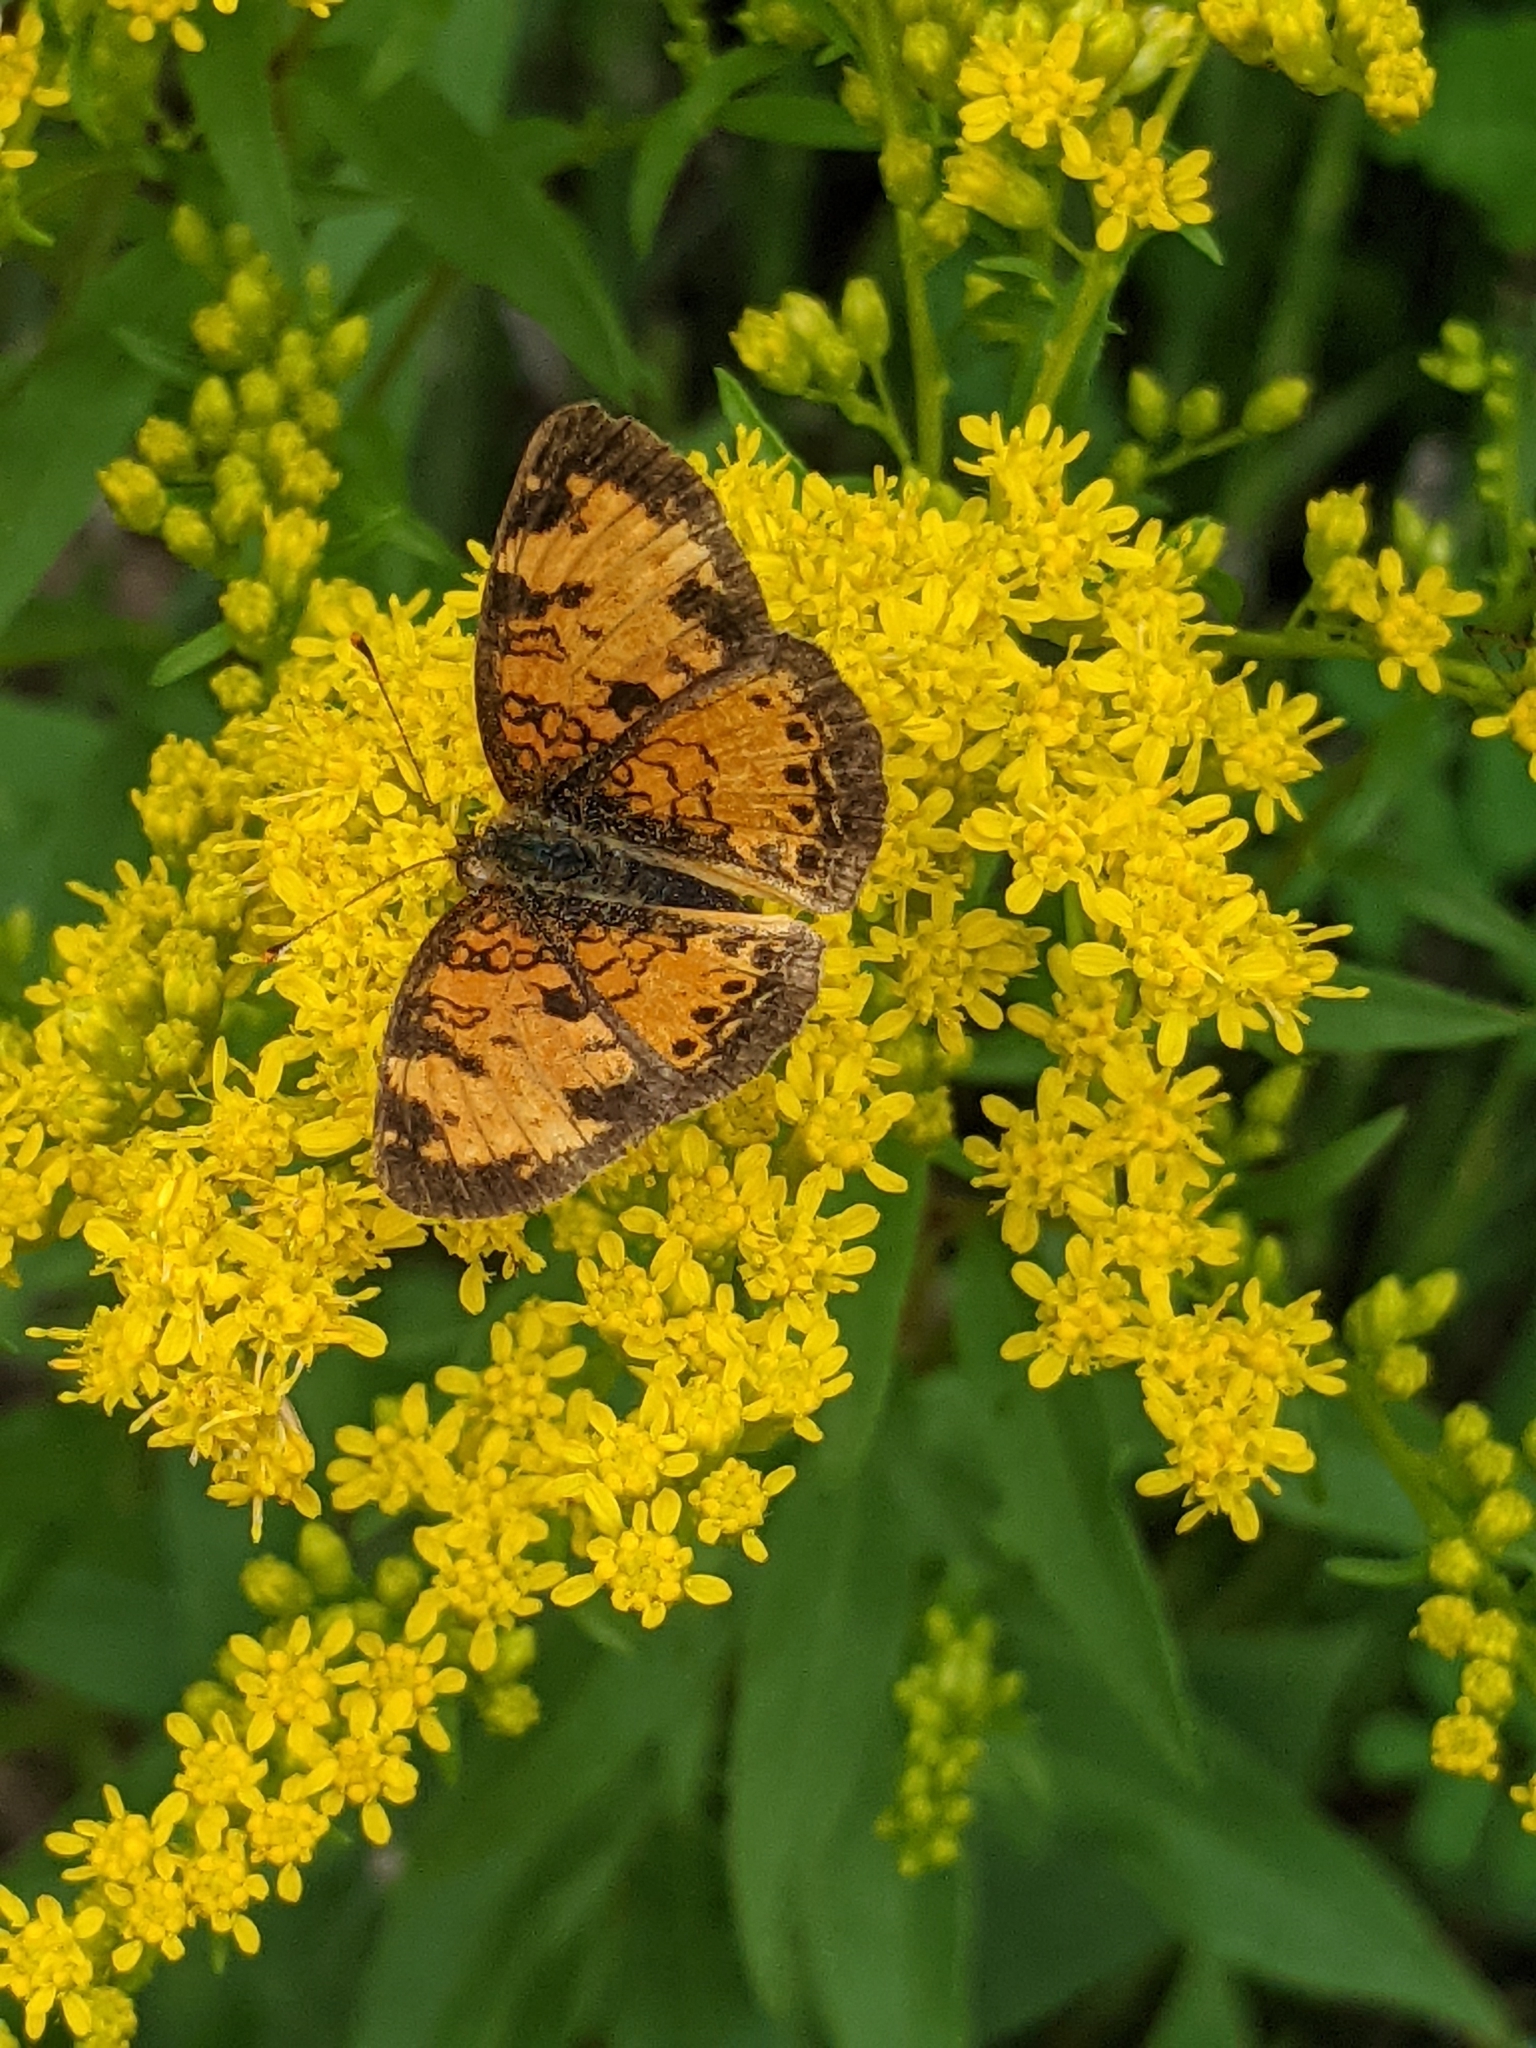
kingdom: Animalia
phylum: Arthropoda
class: Insecta
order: Lepidoptera
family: Nymphalidae
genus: Phyciodes
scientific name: Phyciodes tharos
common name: Pearl crescent
